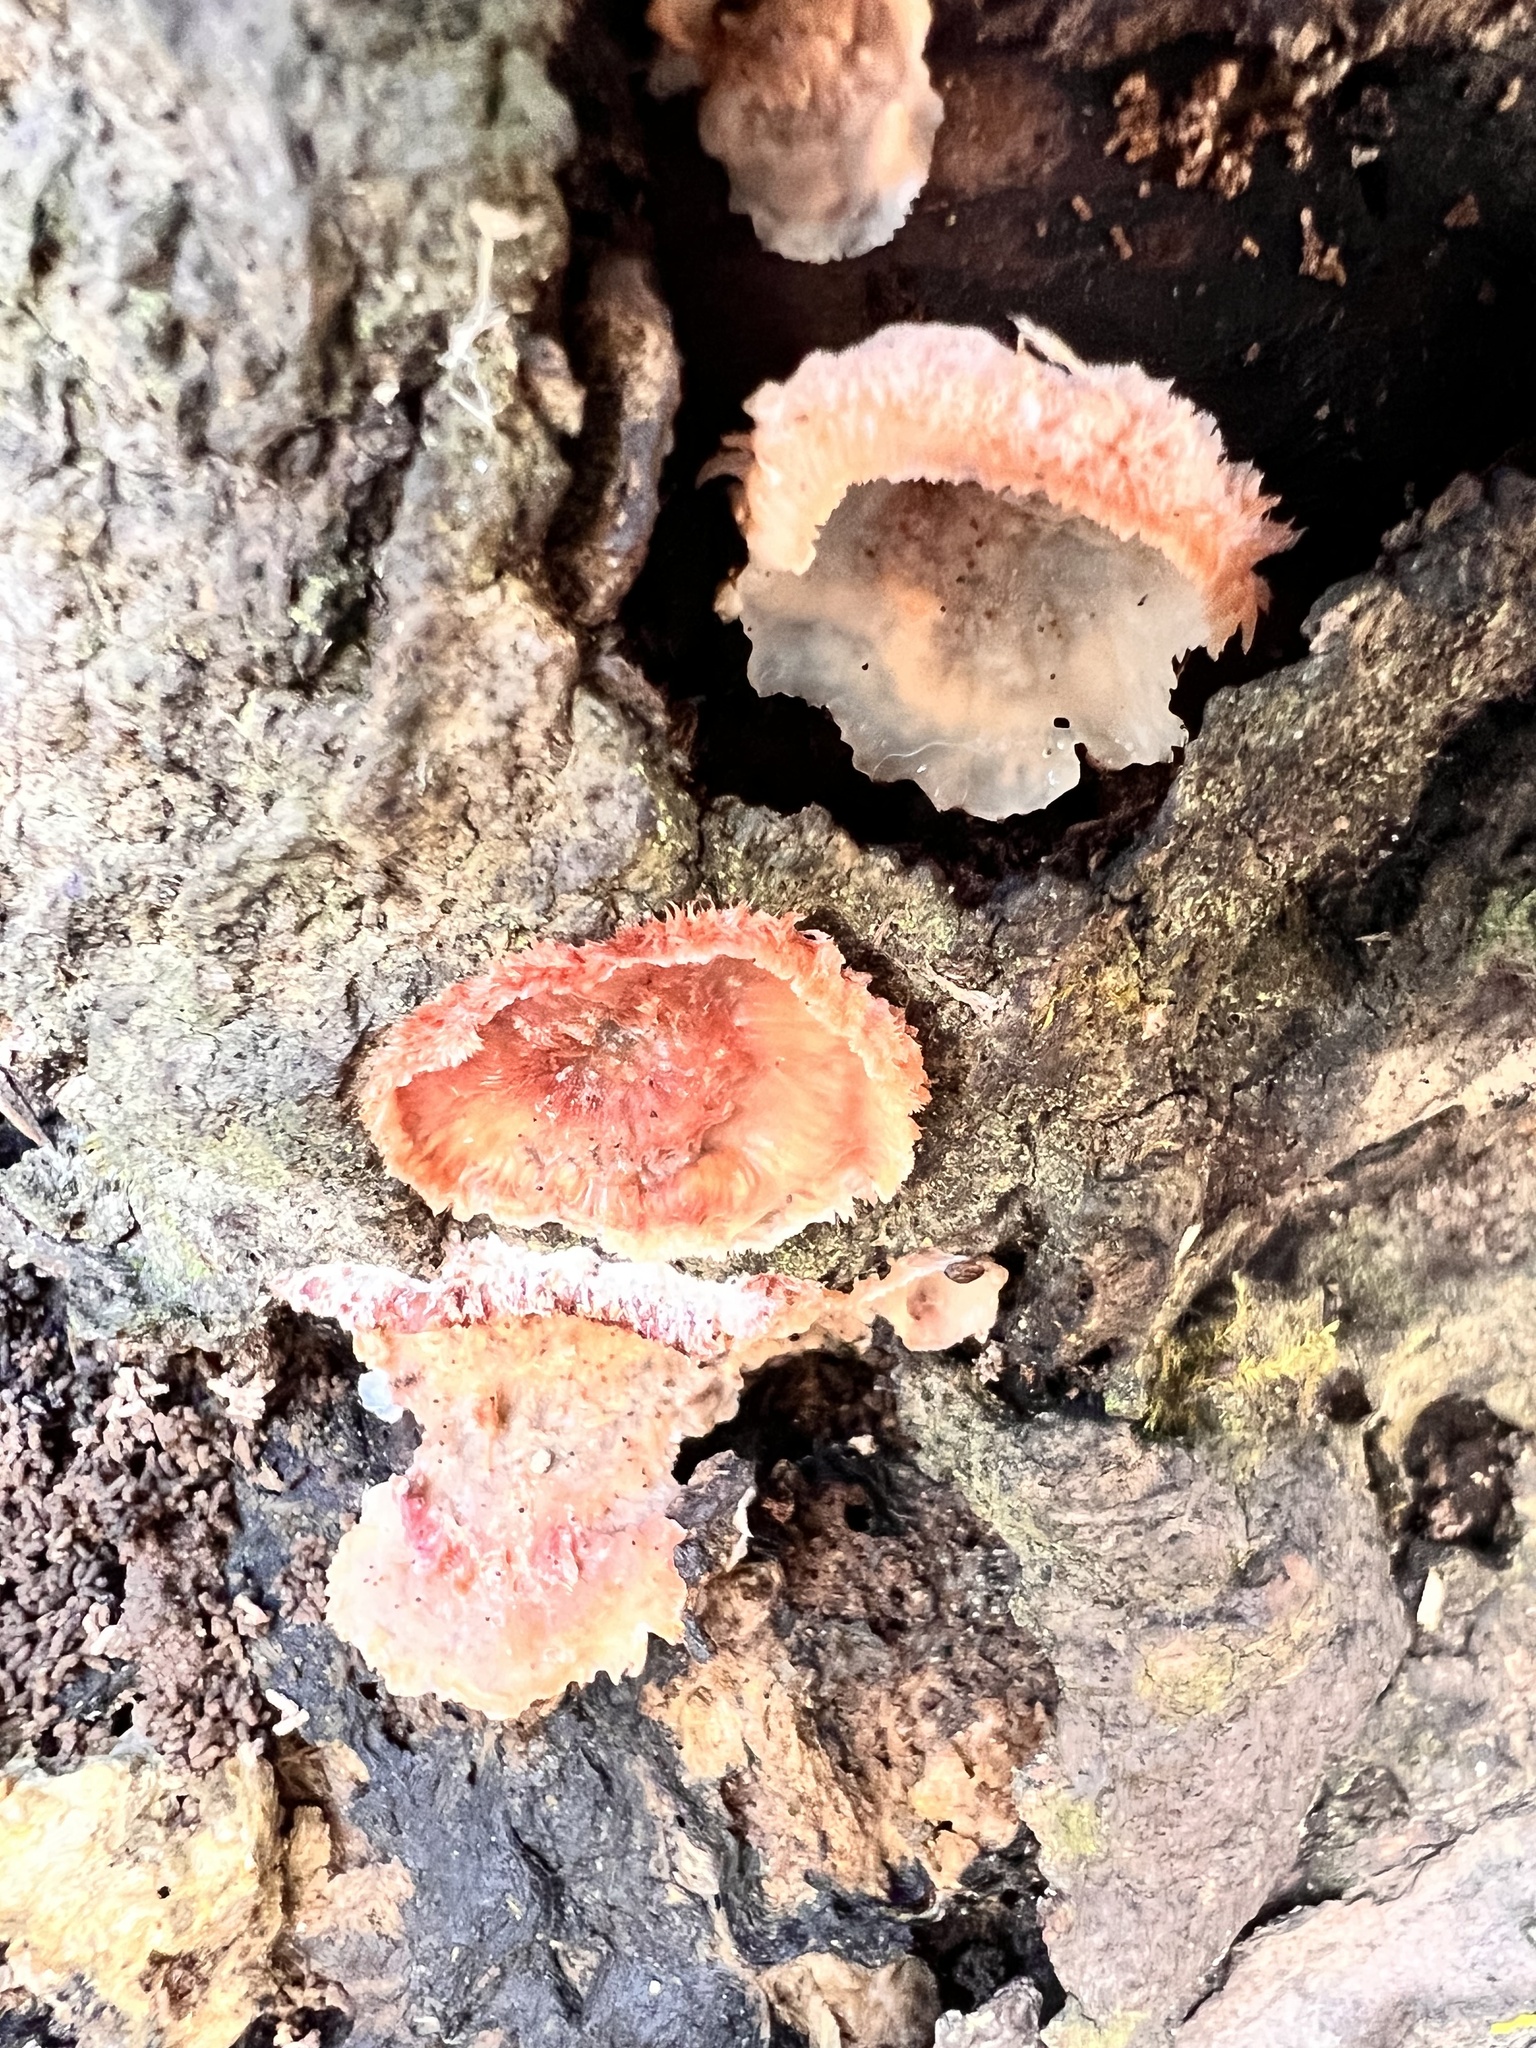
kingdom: Fungi
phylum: Basidiomycota
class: Agaricomycetes
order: Polyporales
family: Meruliaceae
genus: Phlebia
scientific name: Phlebia tremellosa
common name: Jelly rot
